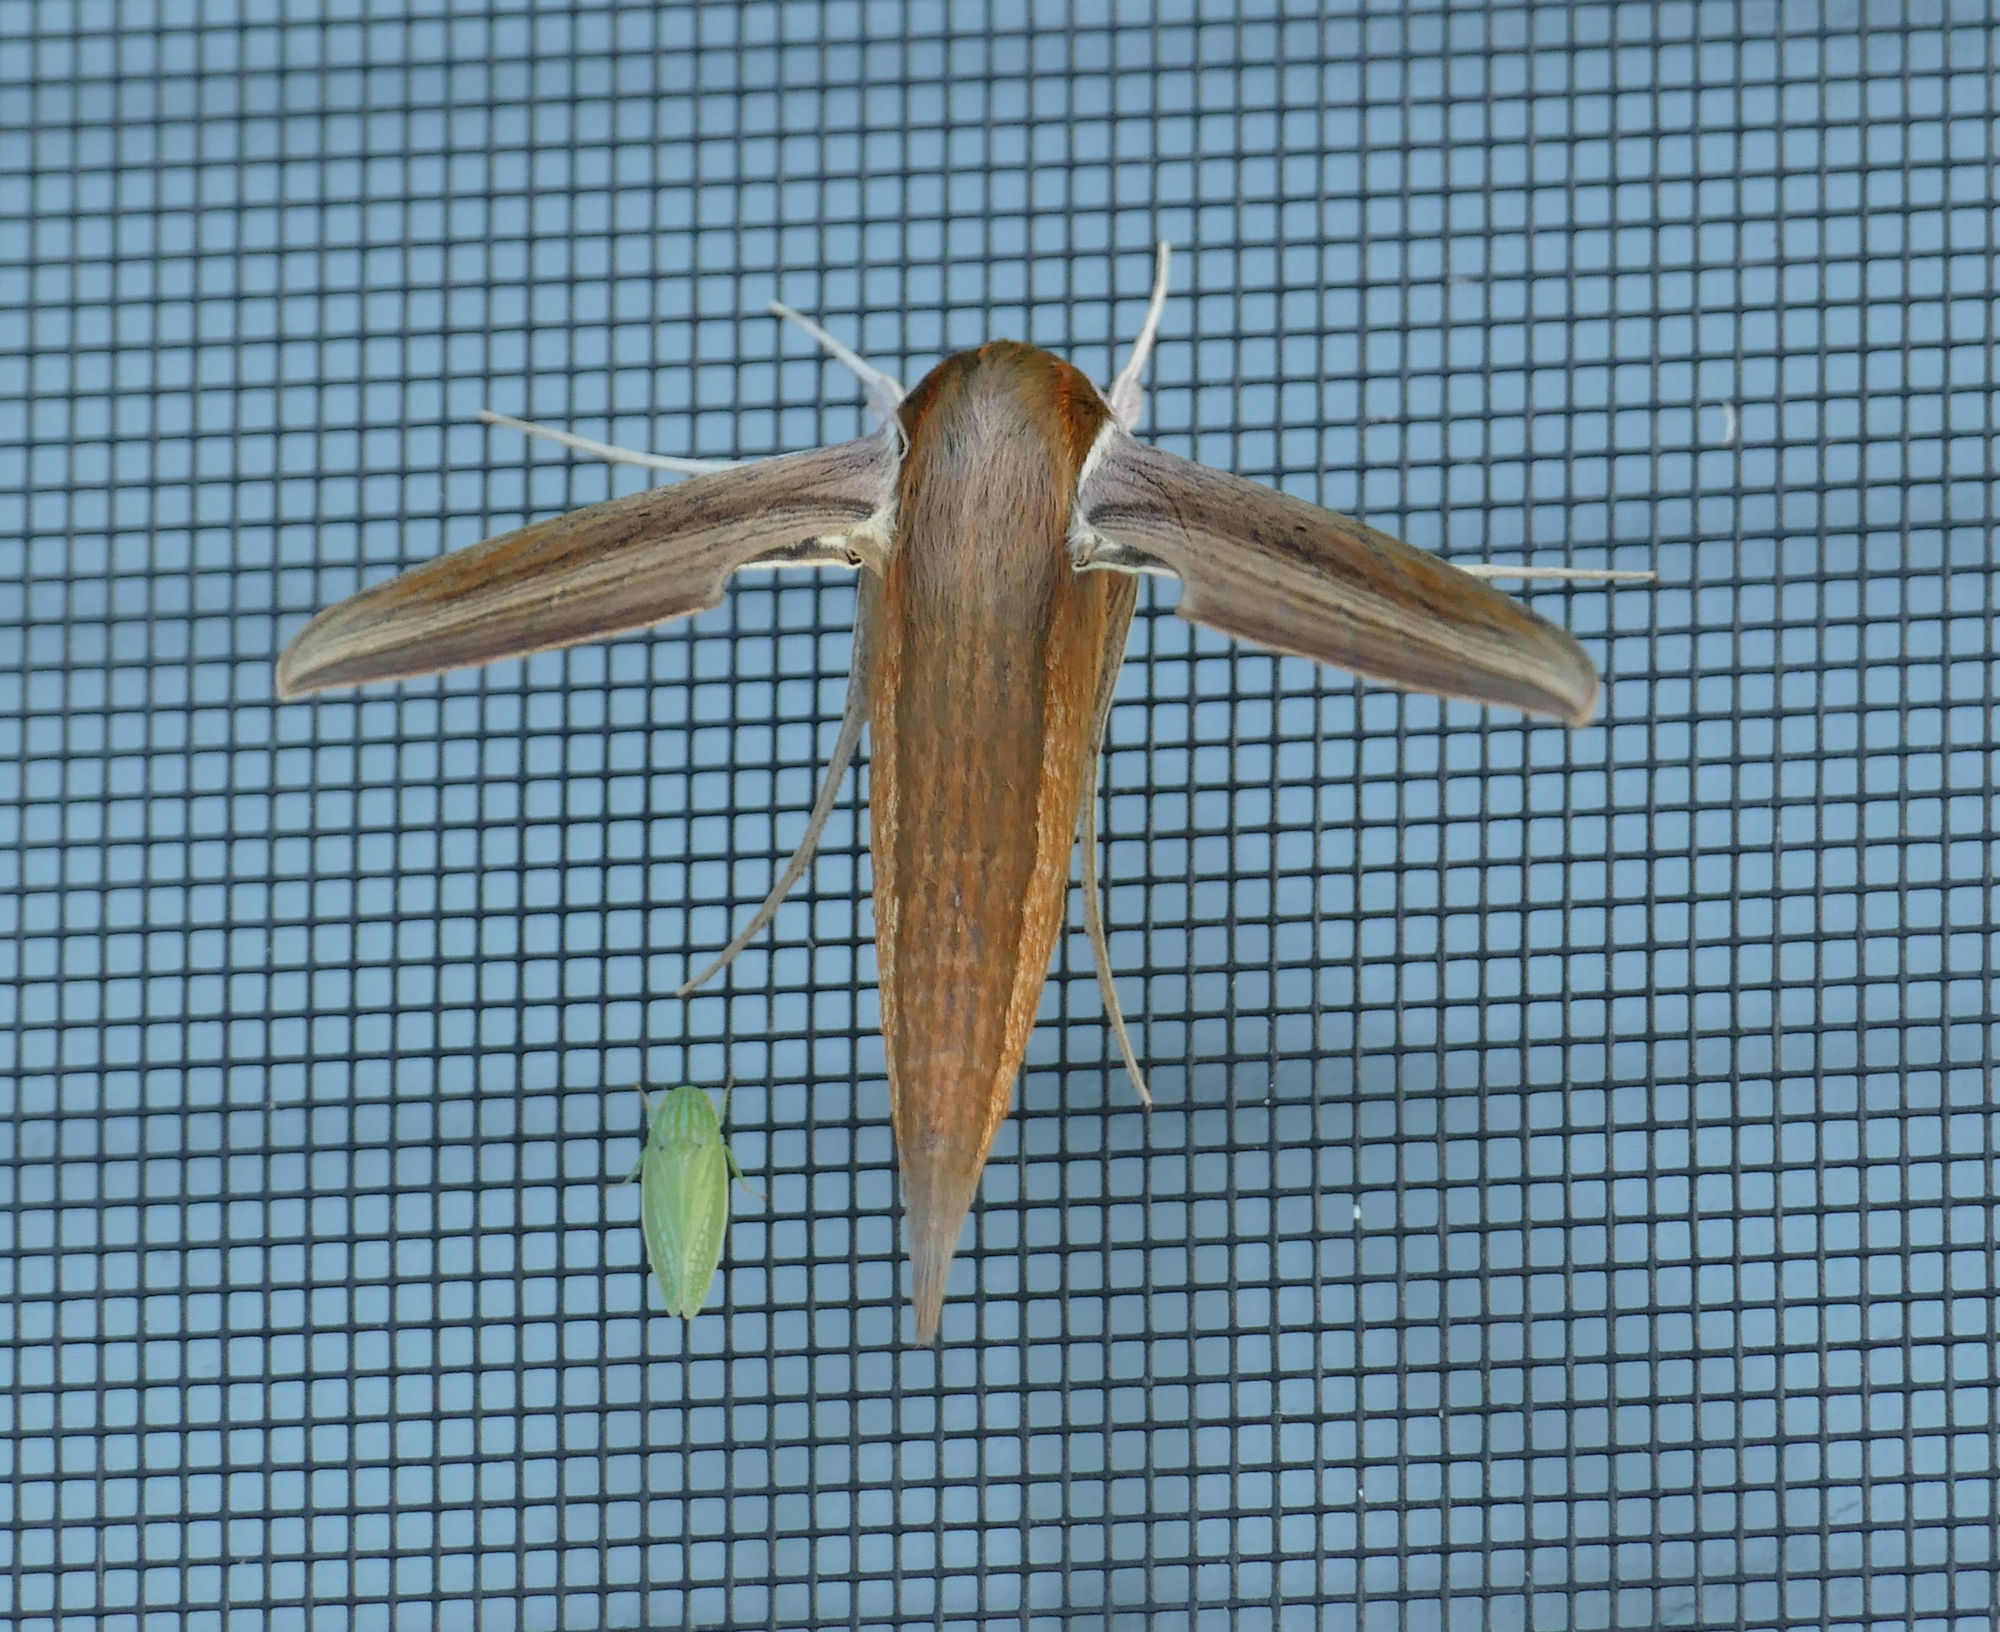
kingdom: Animalia
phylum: Arthropoda
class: Insecta
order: Lepidoptera
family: Sphingidae
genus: Xylophanes
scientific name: Xylophanes tersa
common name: Tersa sphinx
